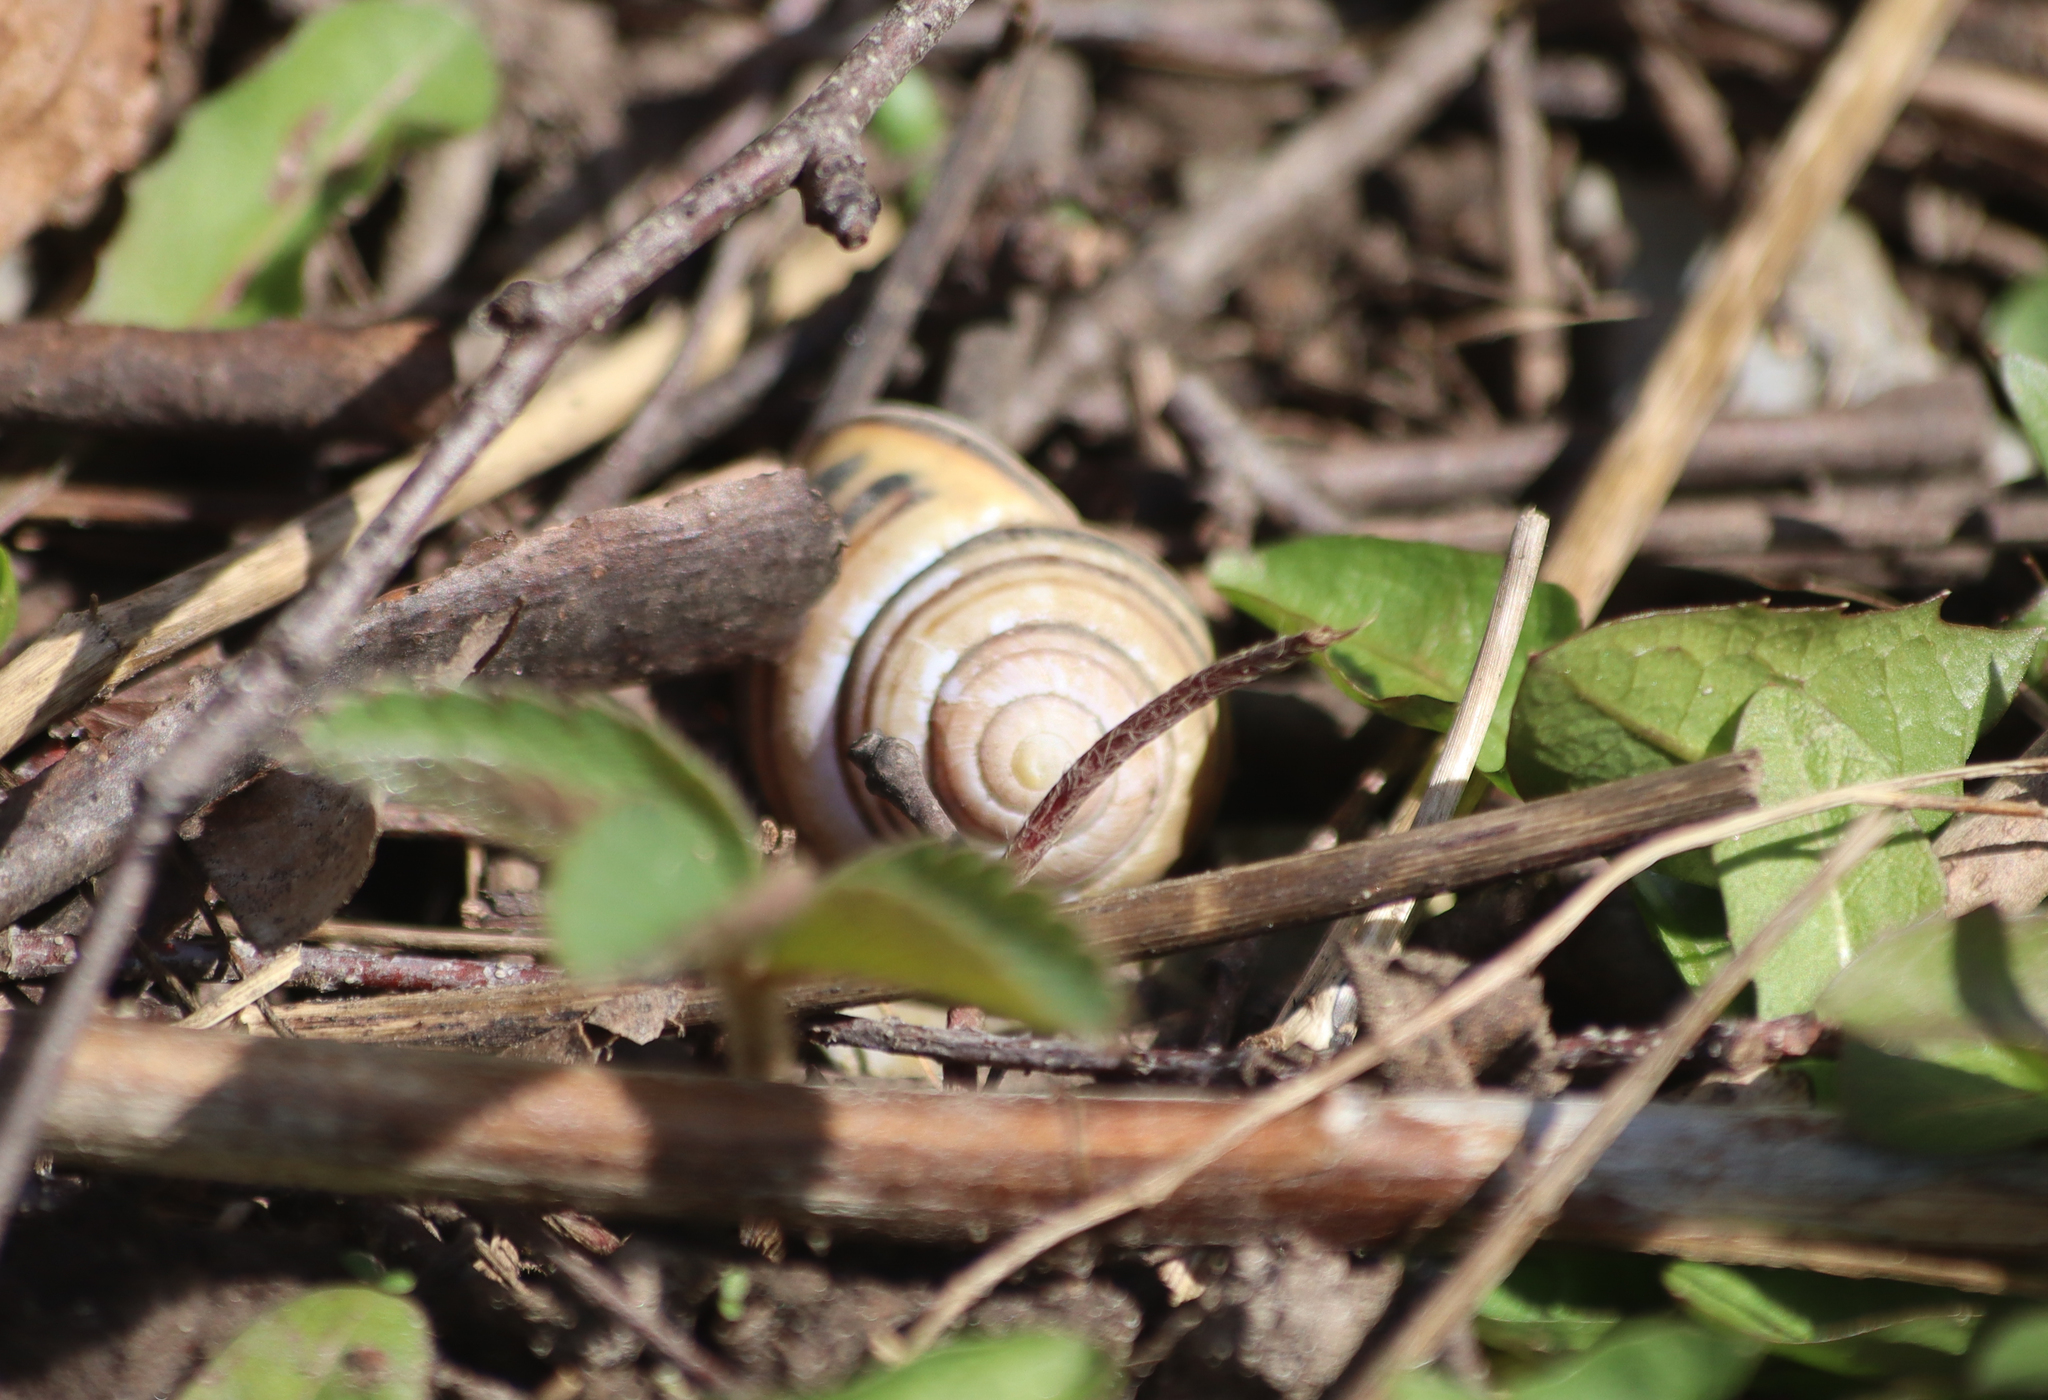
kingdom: Animalia
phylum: Mollusca
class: Gastropoda
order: Stylommatophora
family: Helicidae
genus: Cepaea
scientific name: Cepaea nemoralis
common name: Grovesnail
